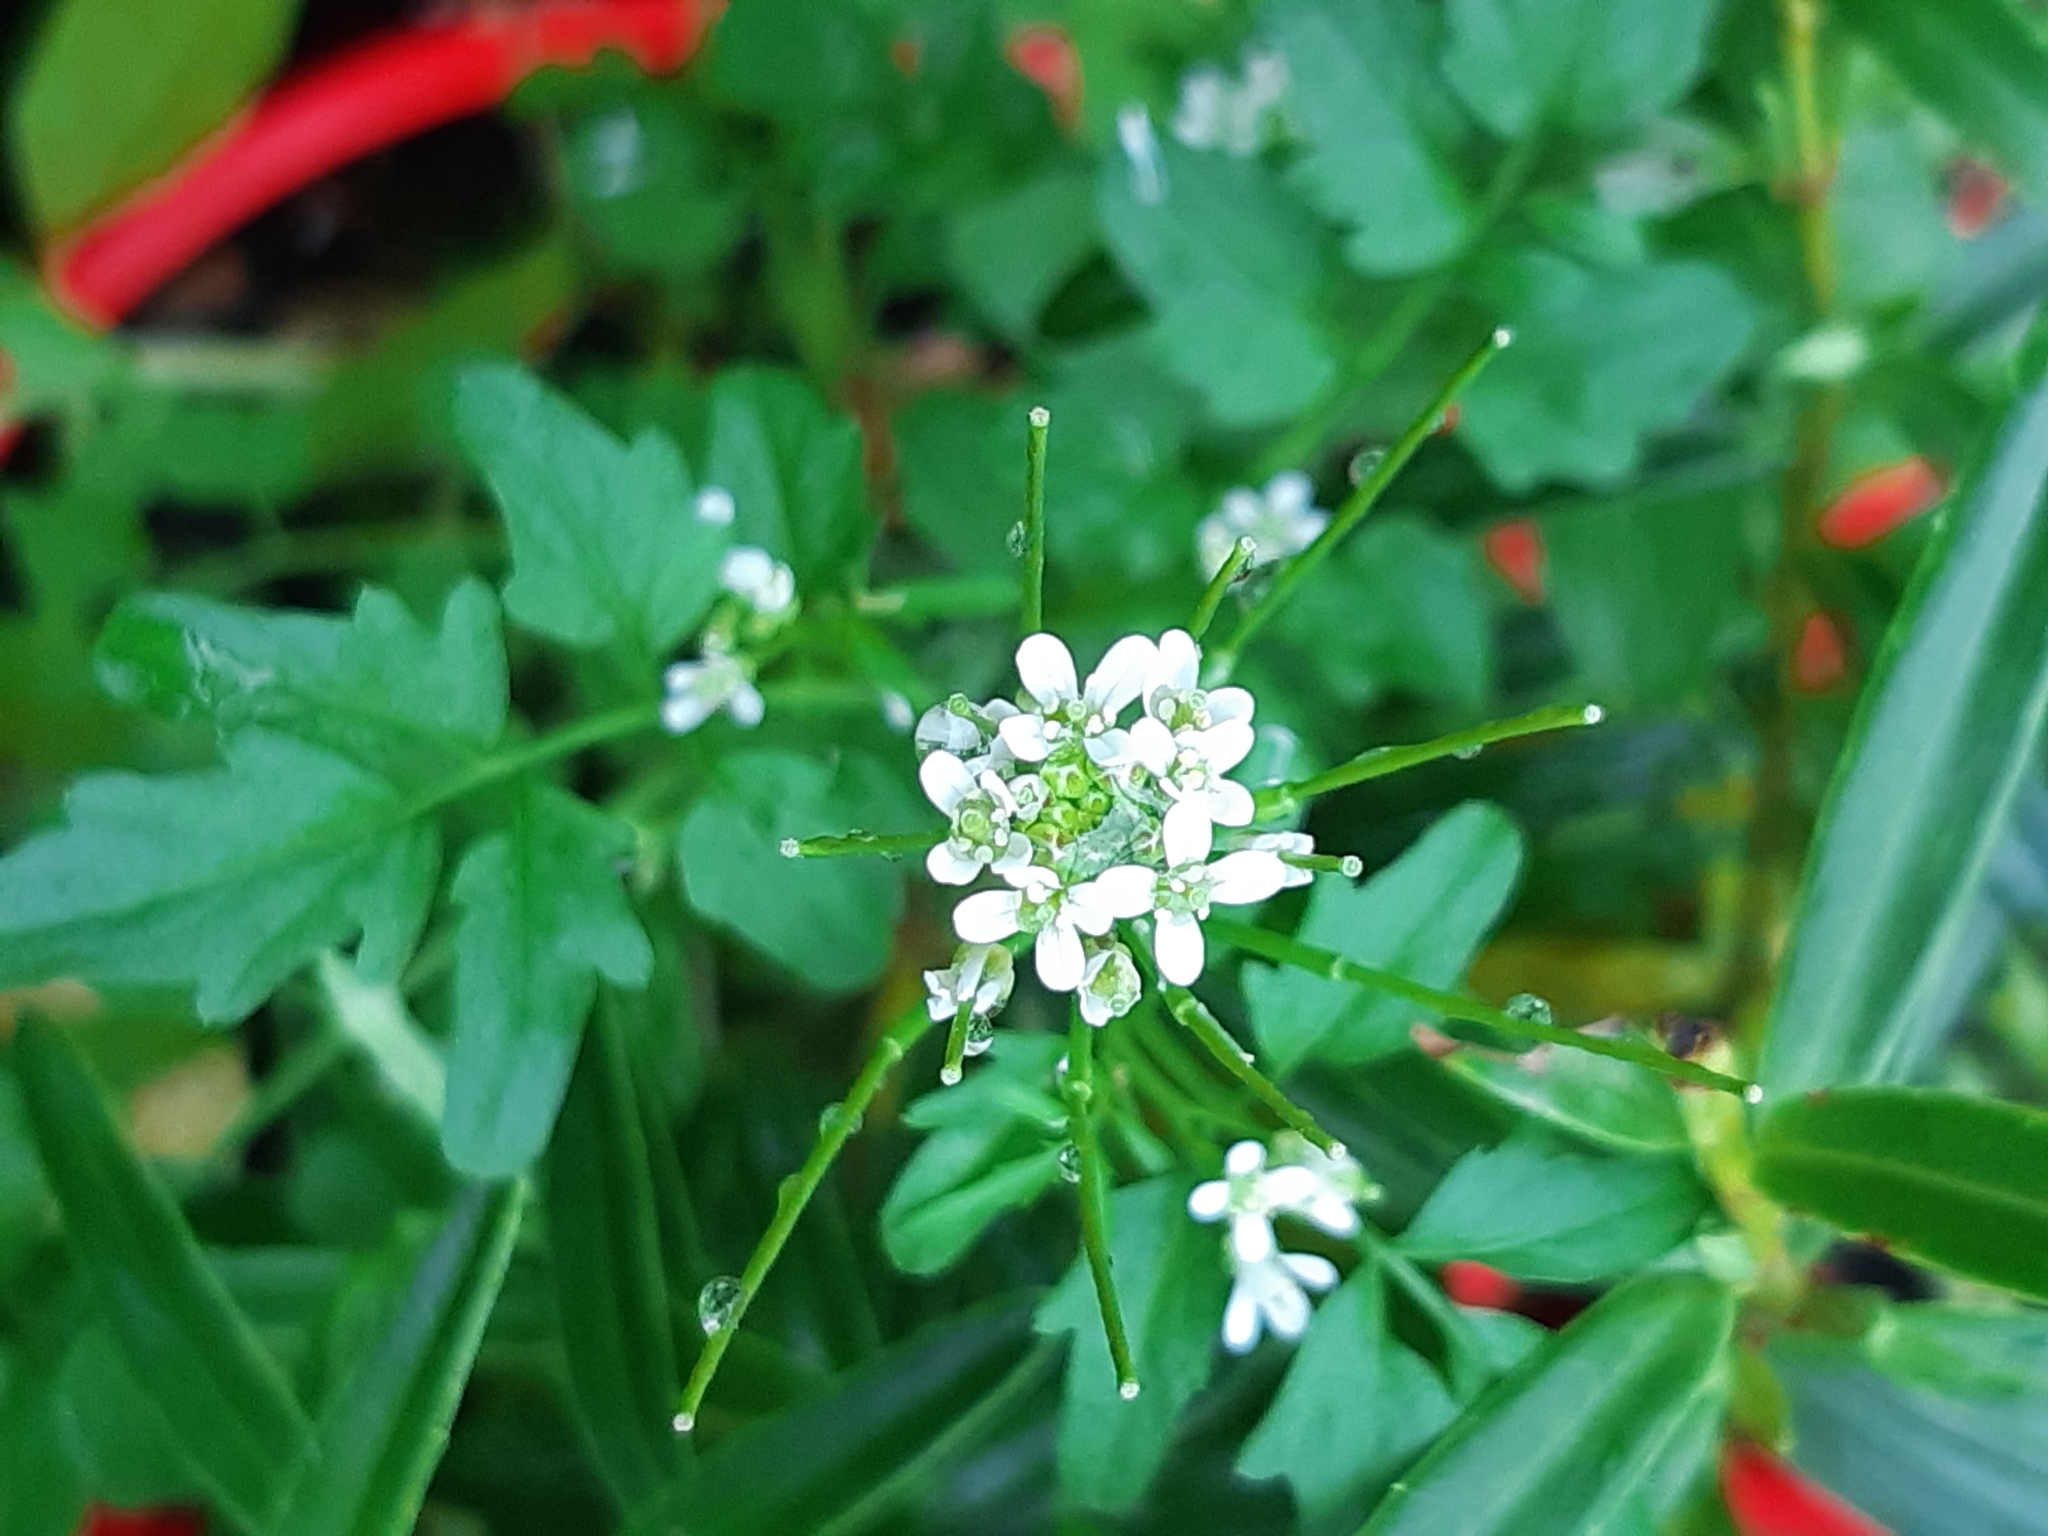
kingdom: Plantae
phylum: Tracheophyta
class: Magnoliopsida
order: Brassicales
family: Brassicaceae
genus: Cardamine
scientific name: Cardamine hirsuta
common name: Hairy bittercress
